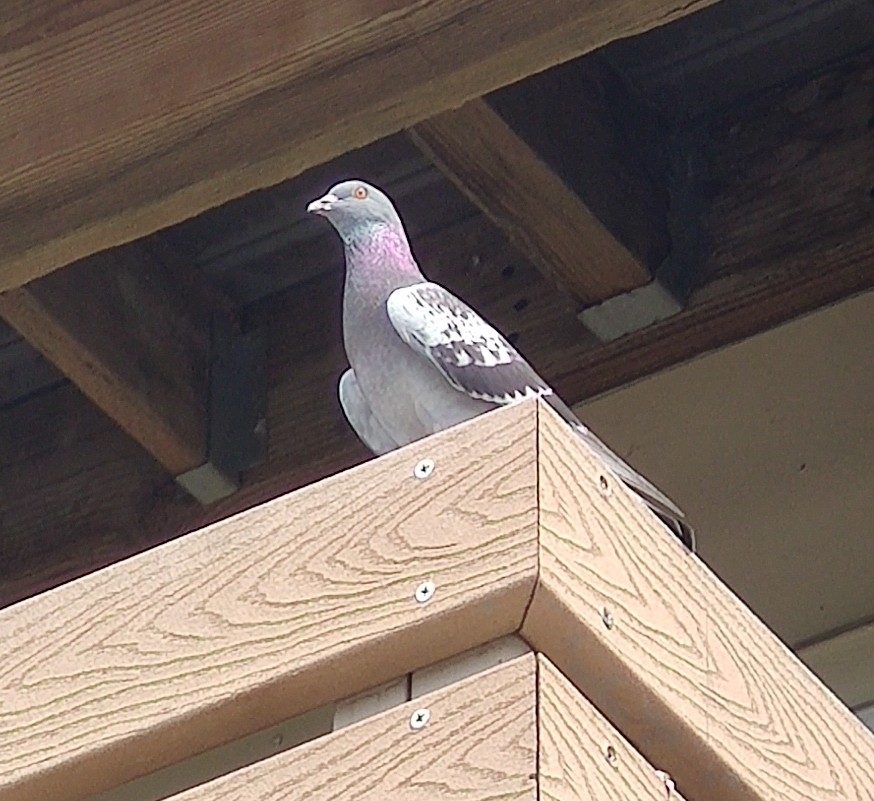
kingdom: Animalia
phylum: Chordata
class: Aves
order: Columbiformes
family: Columbidae
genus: Columba
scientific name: Columba livia
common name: Rock pigeon
